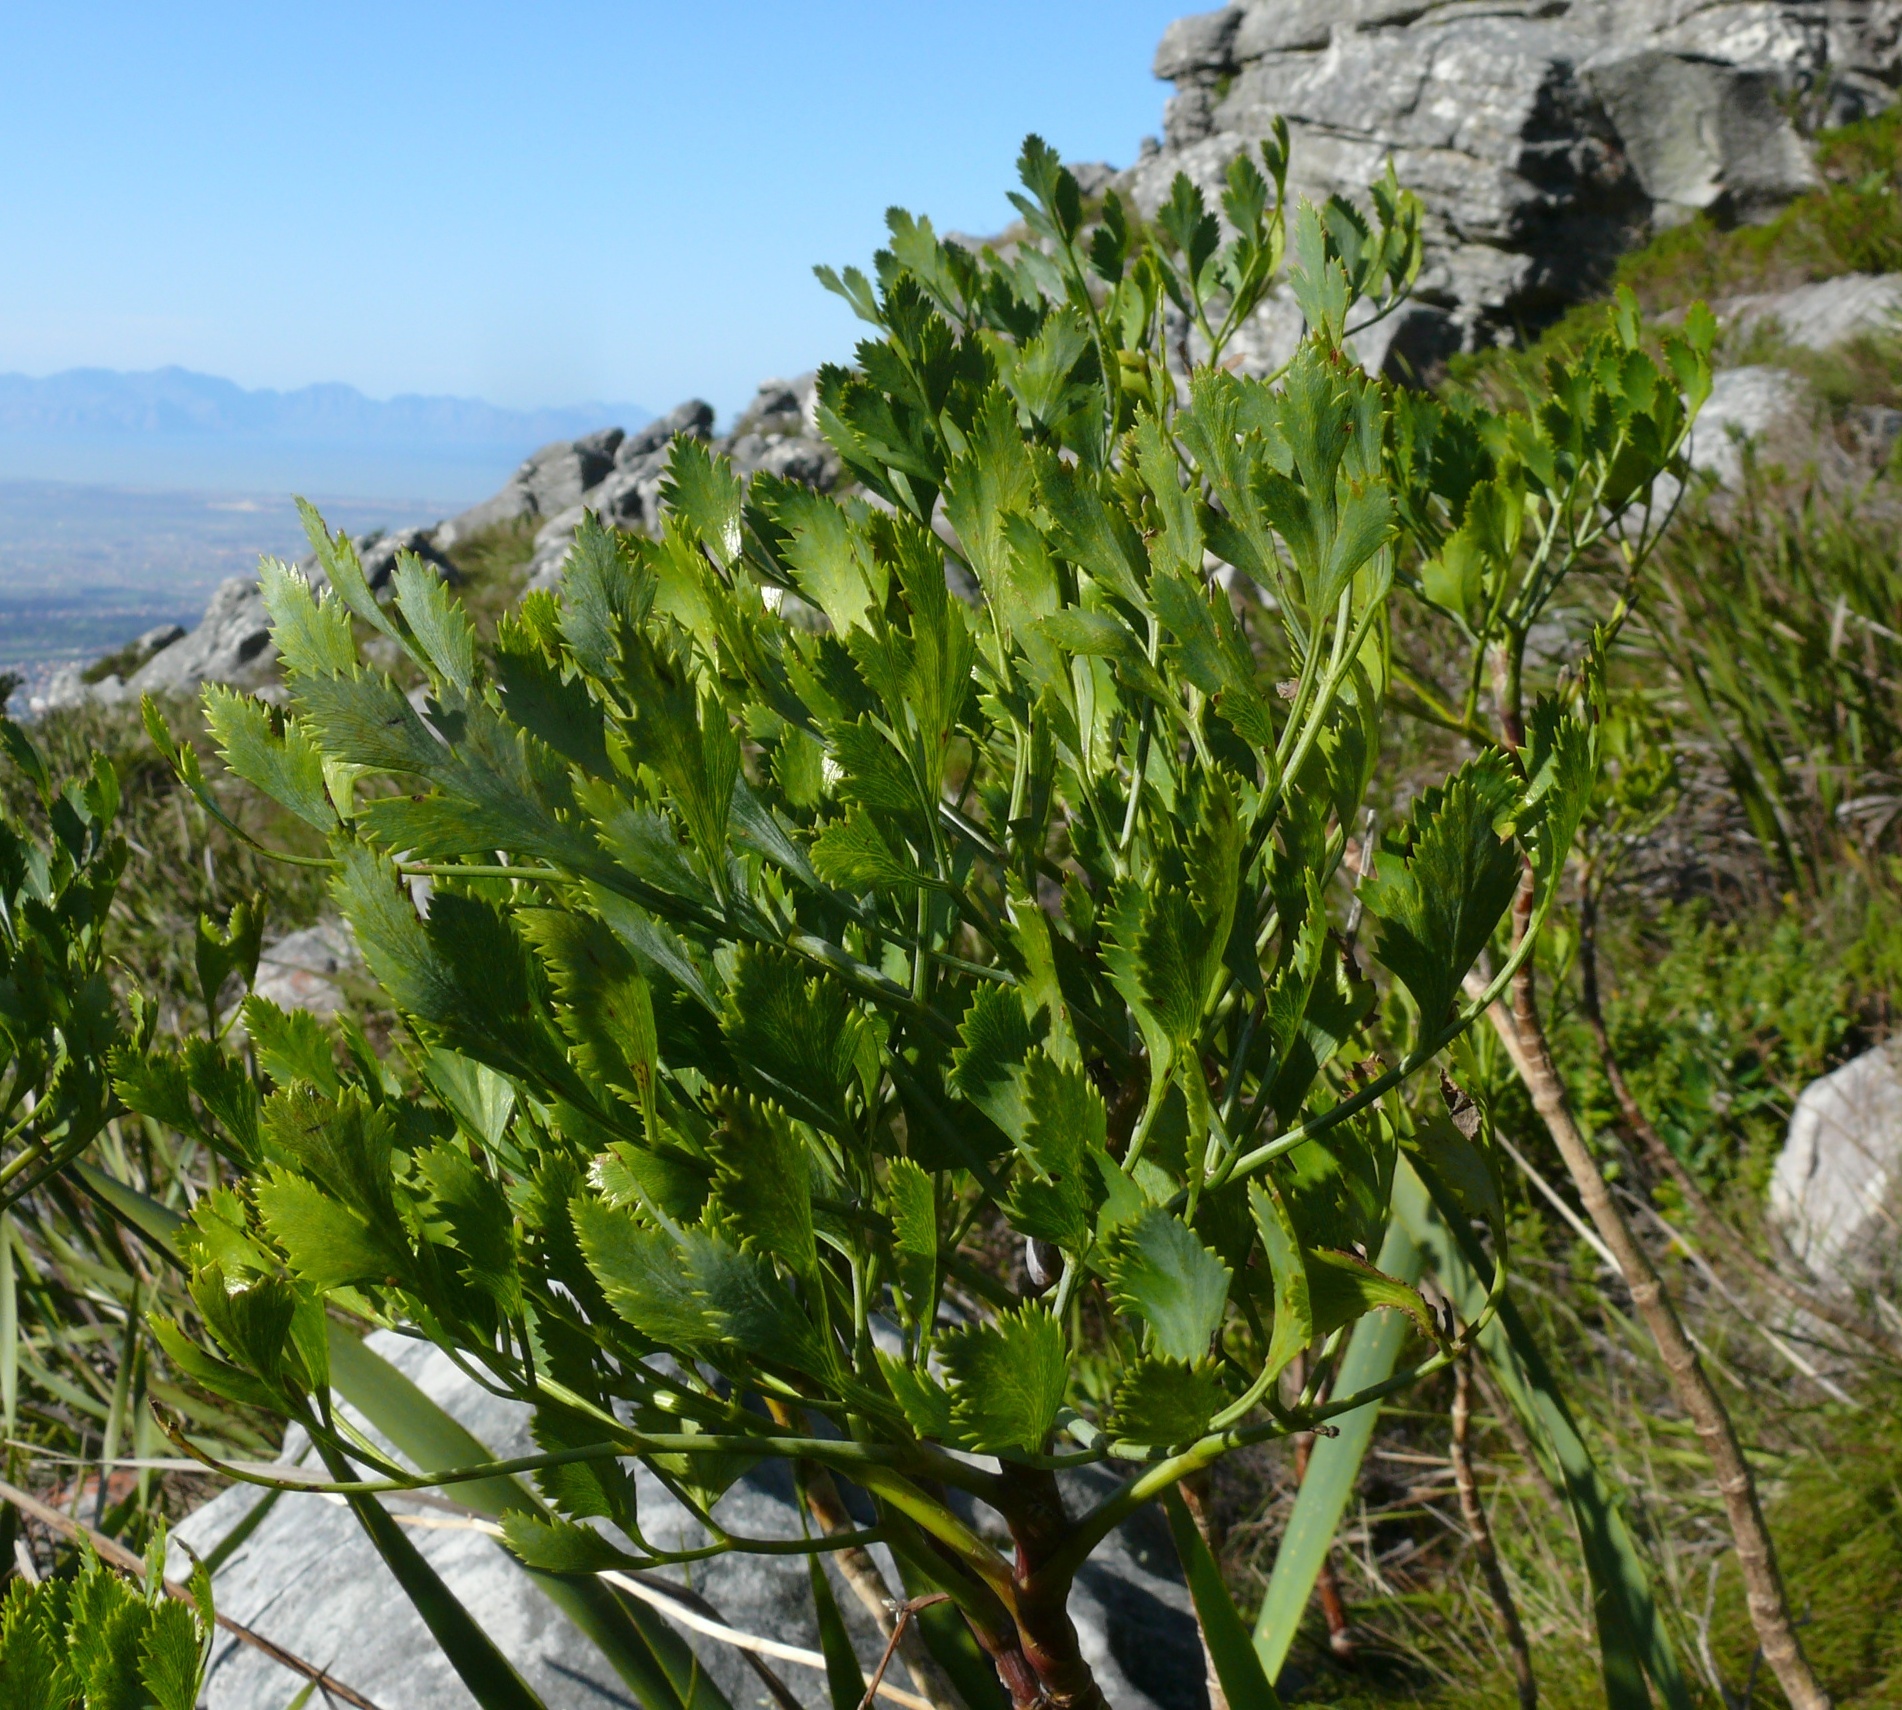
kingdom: Plantae
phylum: Tracheophyta
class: Magnoliopsida
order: Apiales
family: Apiaceae
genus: Notobubon
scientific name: Notobubon galbanum
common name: Blisterbush
